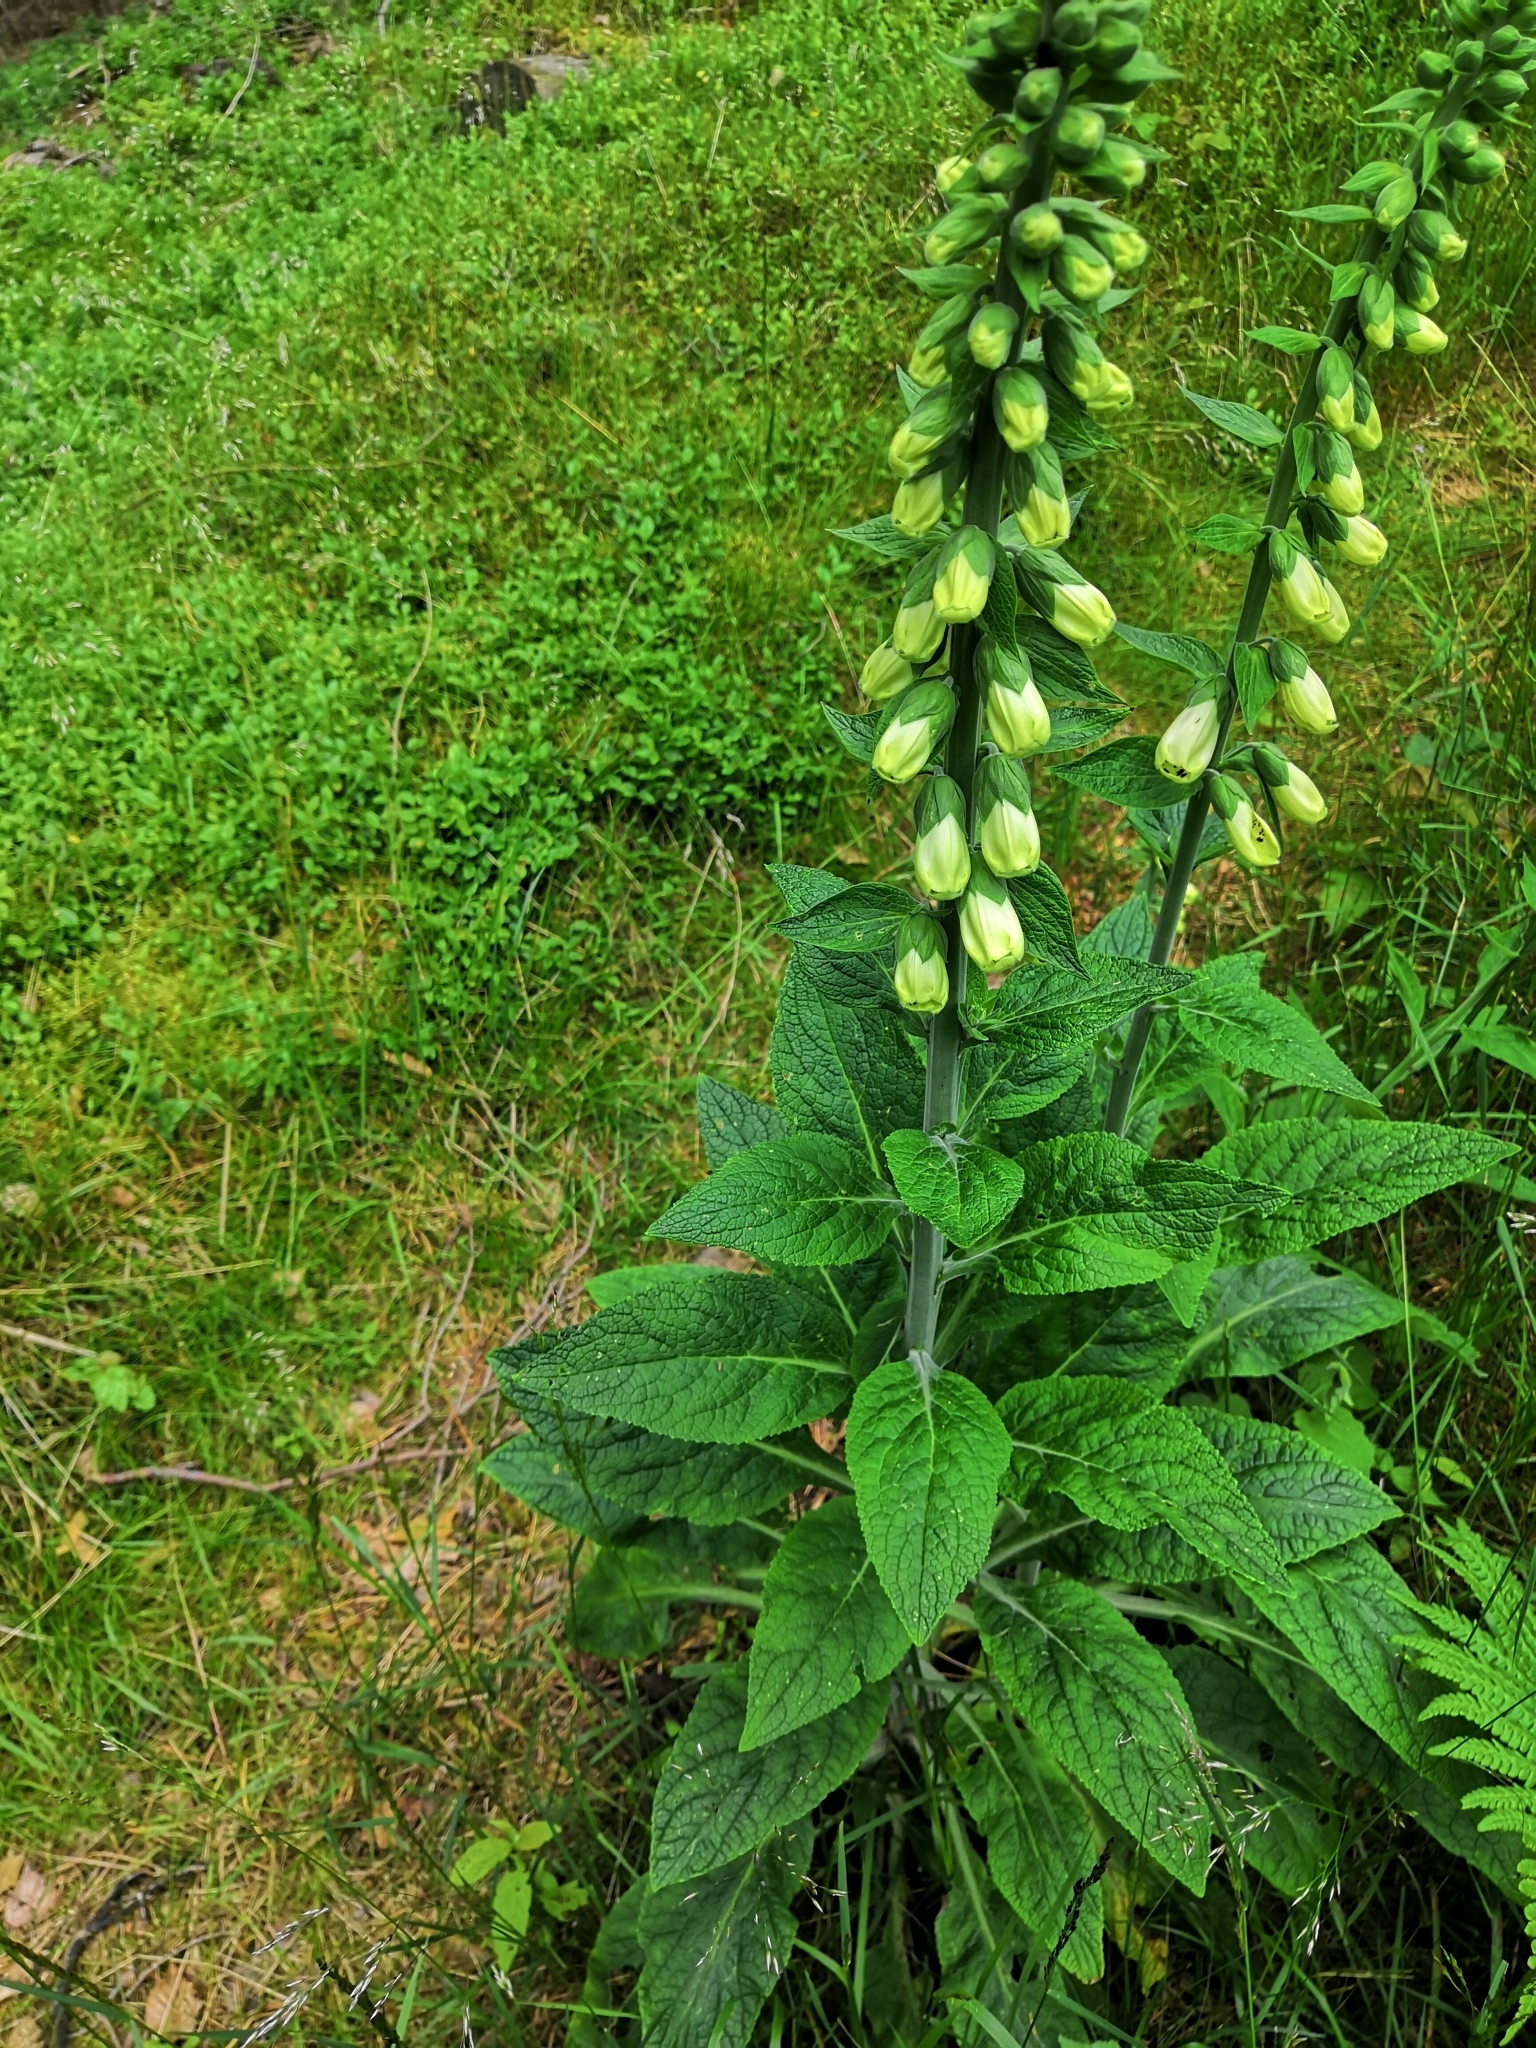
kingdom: Plantae
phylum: Tracheophyta
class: Magnoliopsida
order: Lamiales
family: Plantaginaceae
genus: Digitalis
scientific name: Digitalis purpurea
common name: Foxglove
